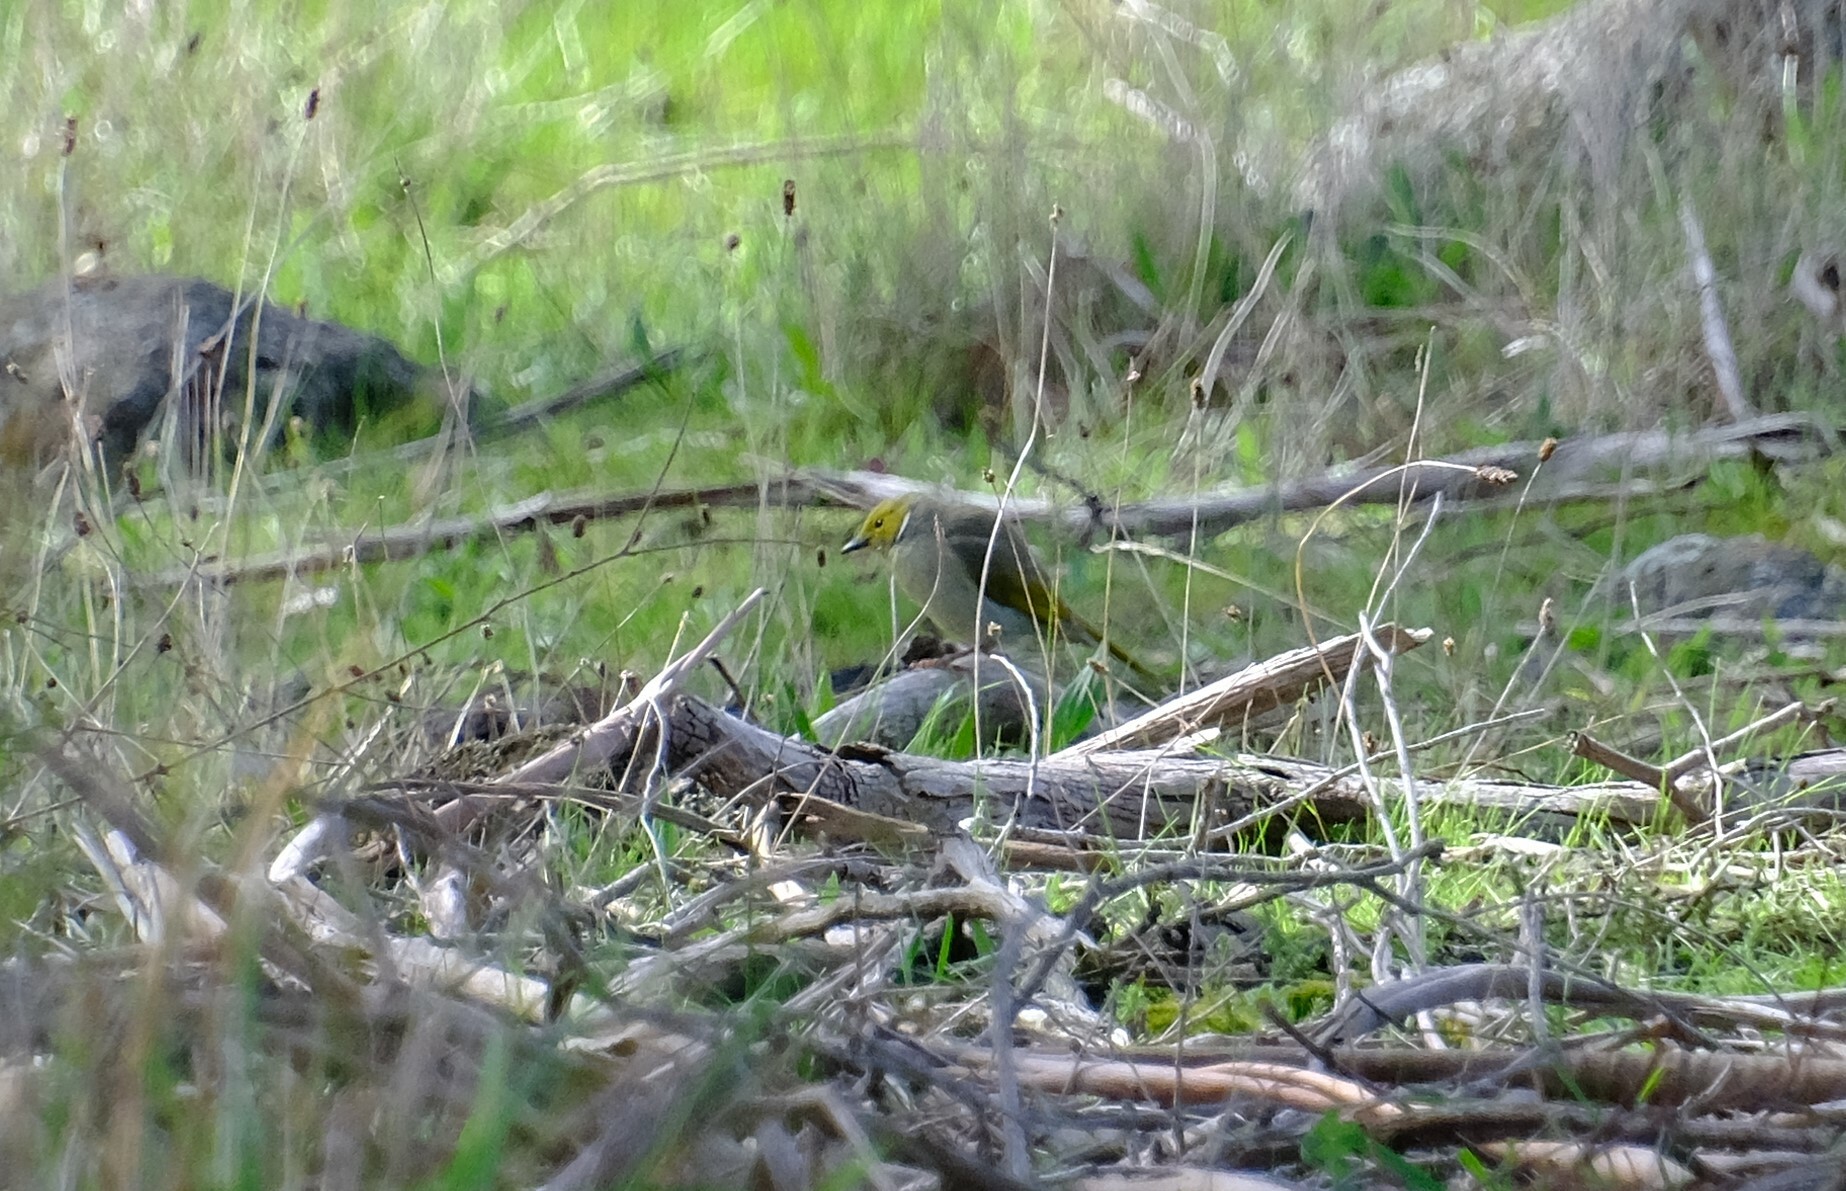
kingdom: Animalia
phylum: Chordata
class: Aves
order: Passeriformes
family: Meliphagidae
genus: Ptilotula
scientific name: Ptilotula penicillata
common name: White-plumed honeyeater
